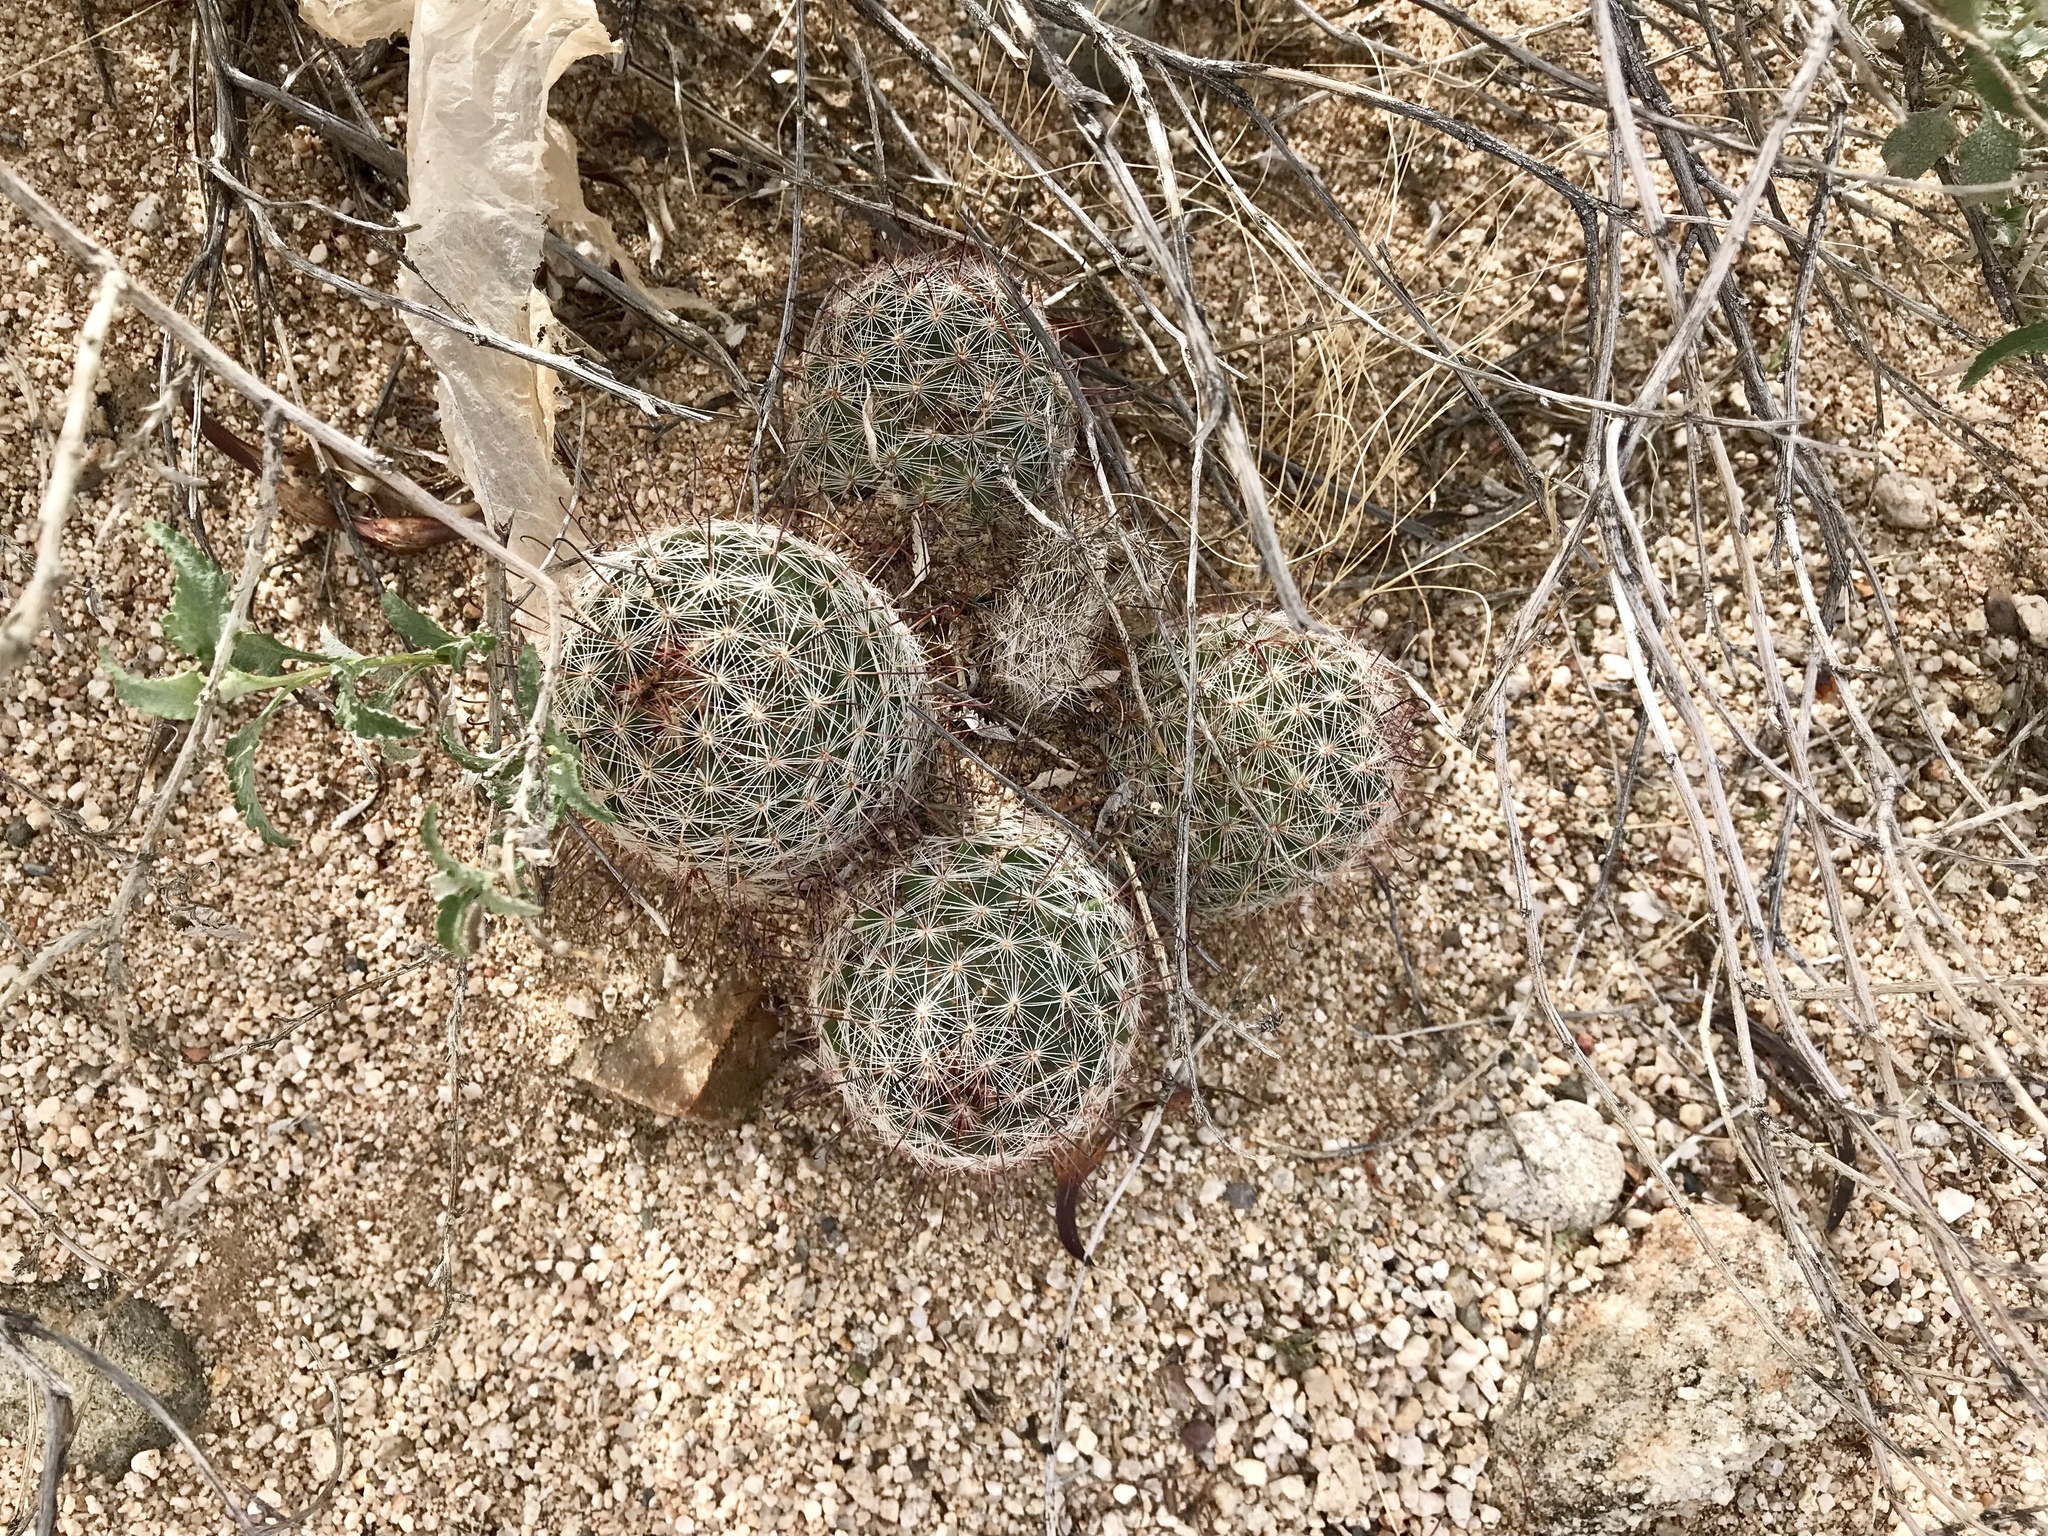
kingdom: Plantae
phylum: Tracheophyta
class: Magnoliopsida
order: Caryophyllales
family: Cactaceae
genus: Cochemiea
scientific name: Cochemiea grahamii
